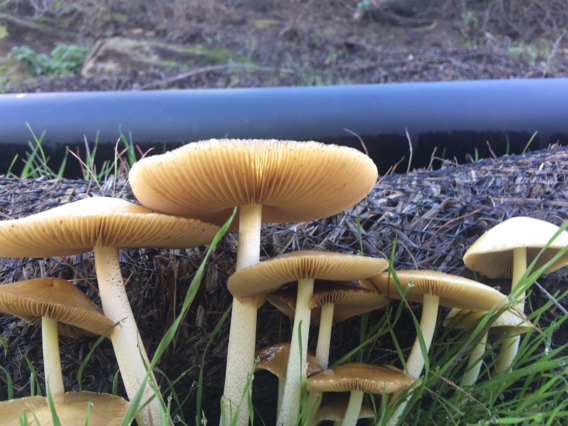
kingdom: Fungi
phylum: Basidiomycota
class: Agaricomycetes
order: Agaricales
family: Bolbitiaceae
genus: Bolbitius
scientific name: Bolbitius titubans
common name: Yellow fieldcap
